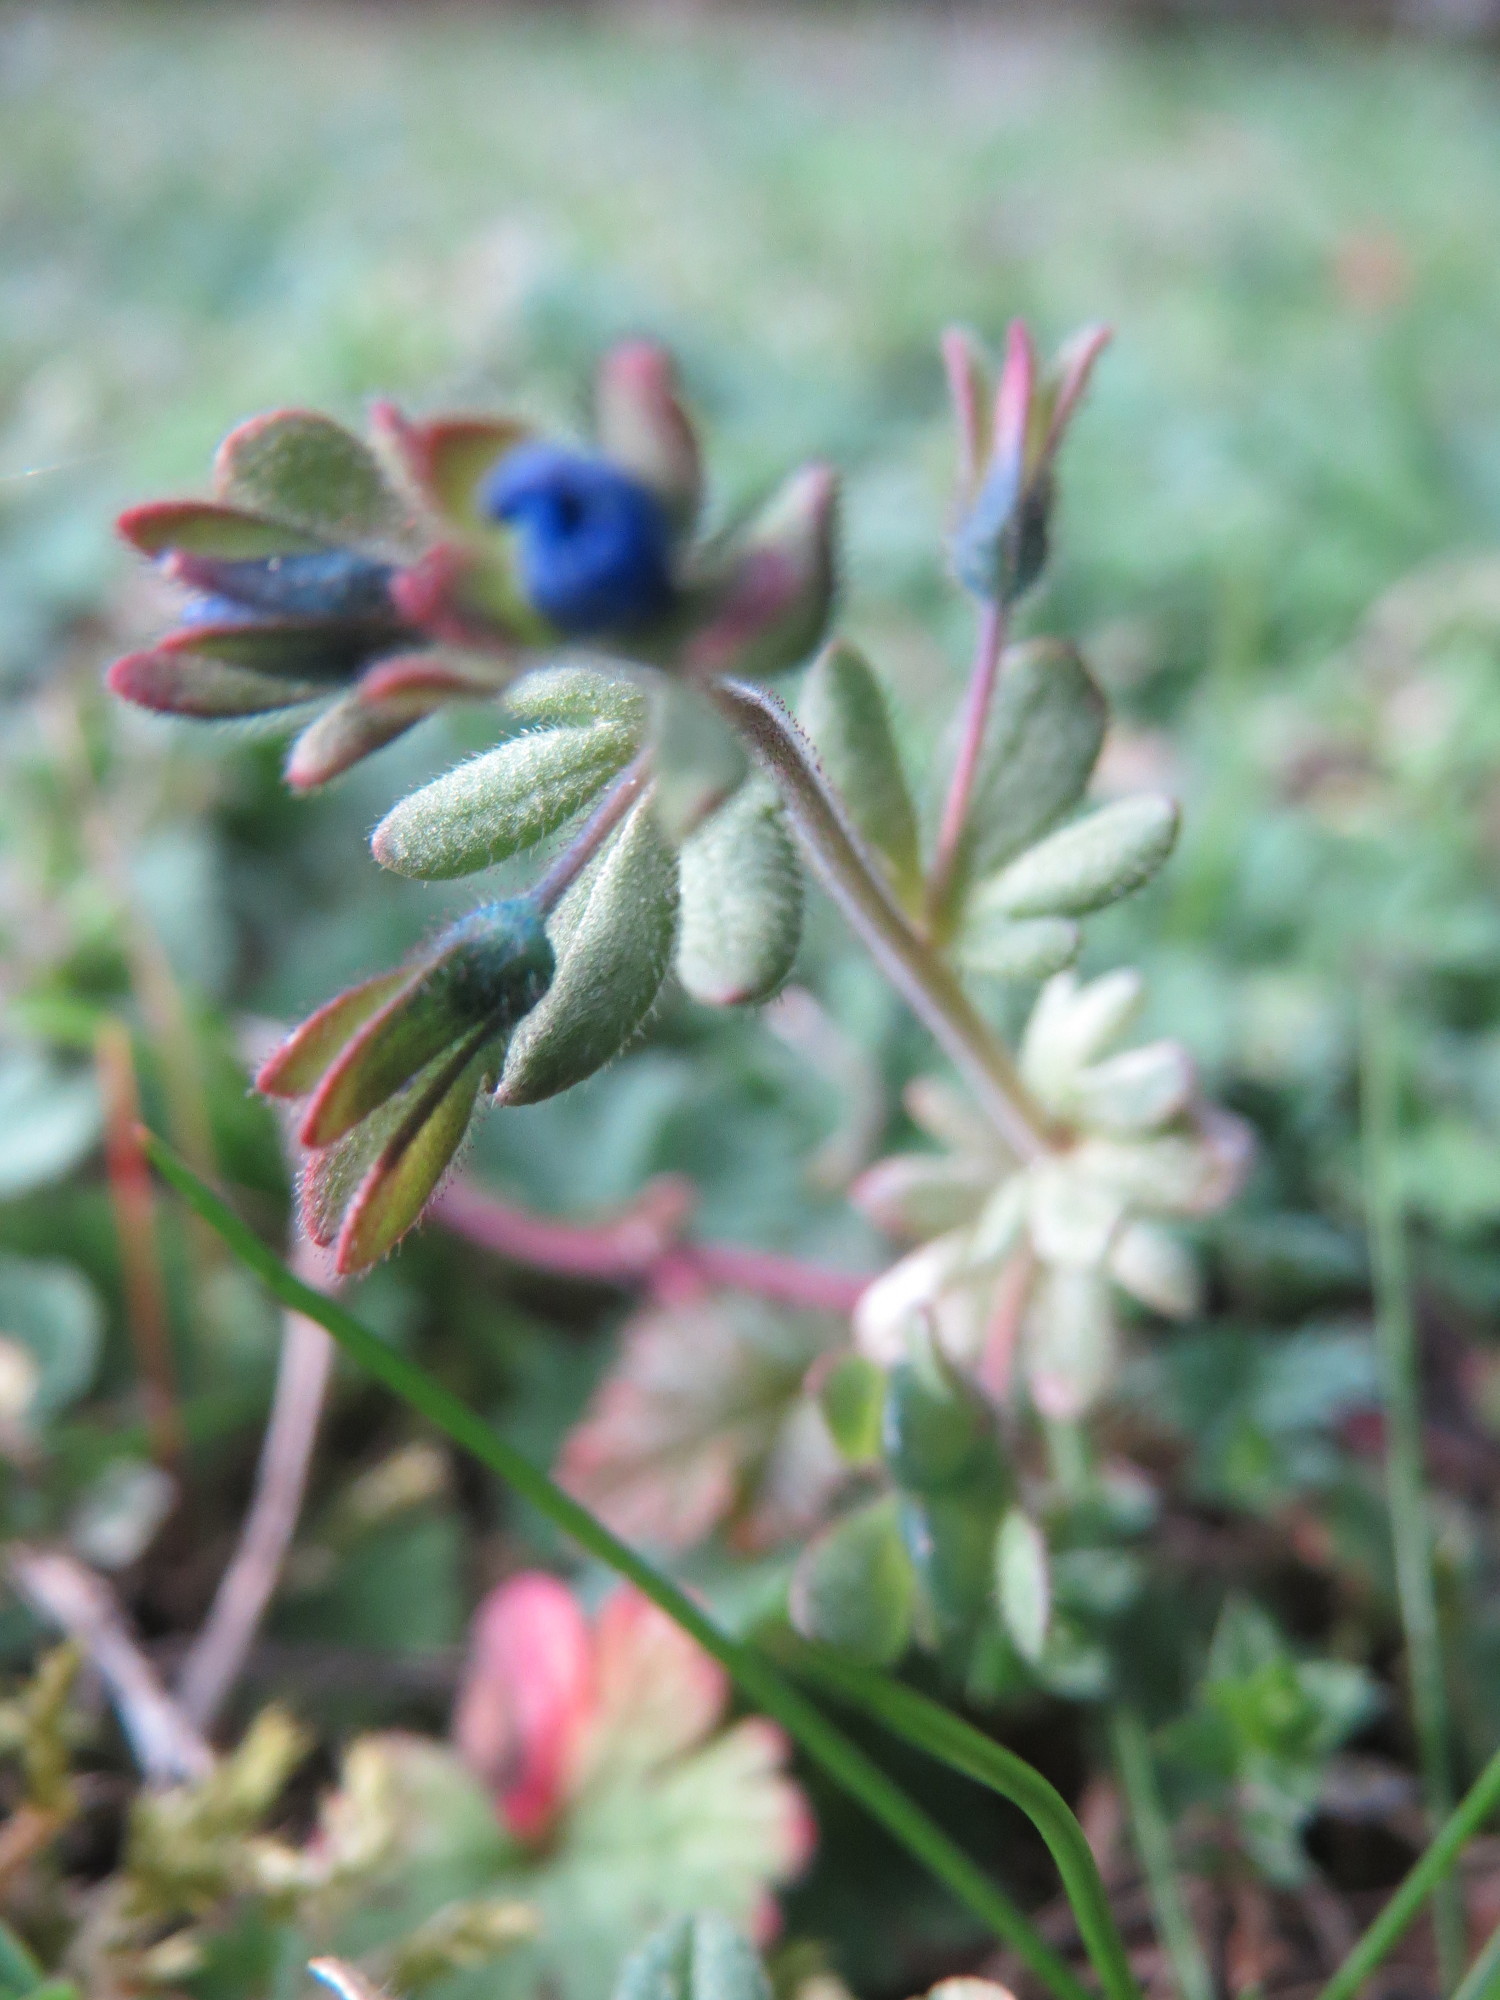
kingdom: Plantae
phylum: Tracheophyta
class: Magnoliopsida
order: Lamiales
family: Plantaginaceae
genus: Veronica
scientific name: Veronica triphyllos
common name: Fingered speedwell
